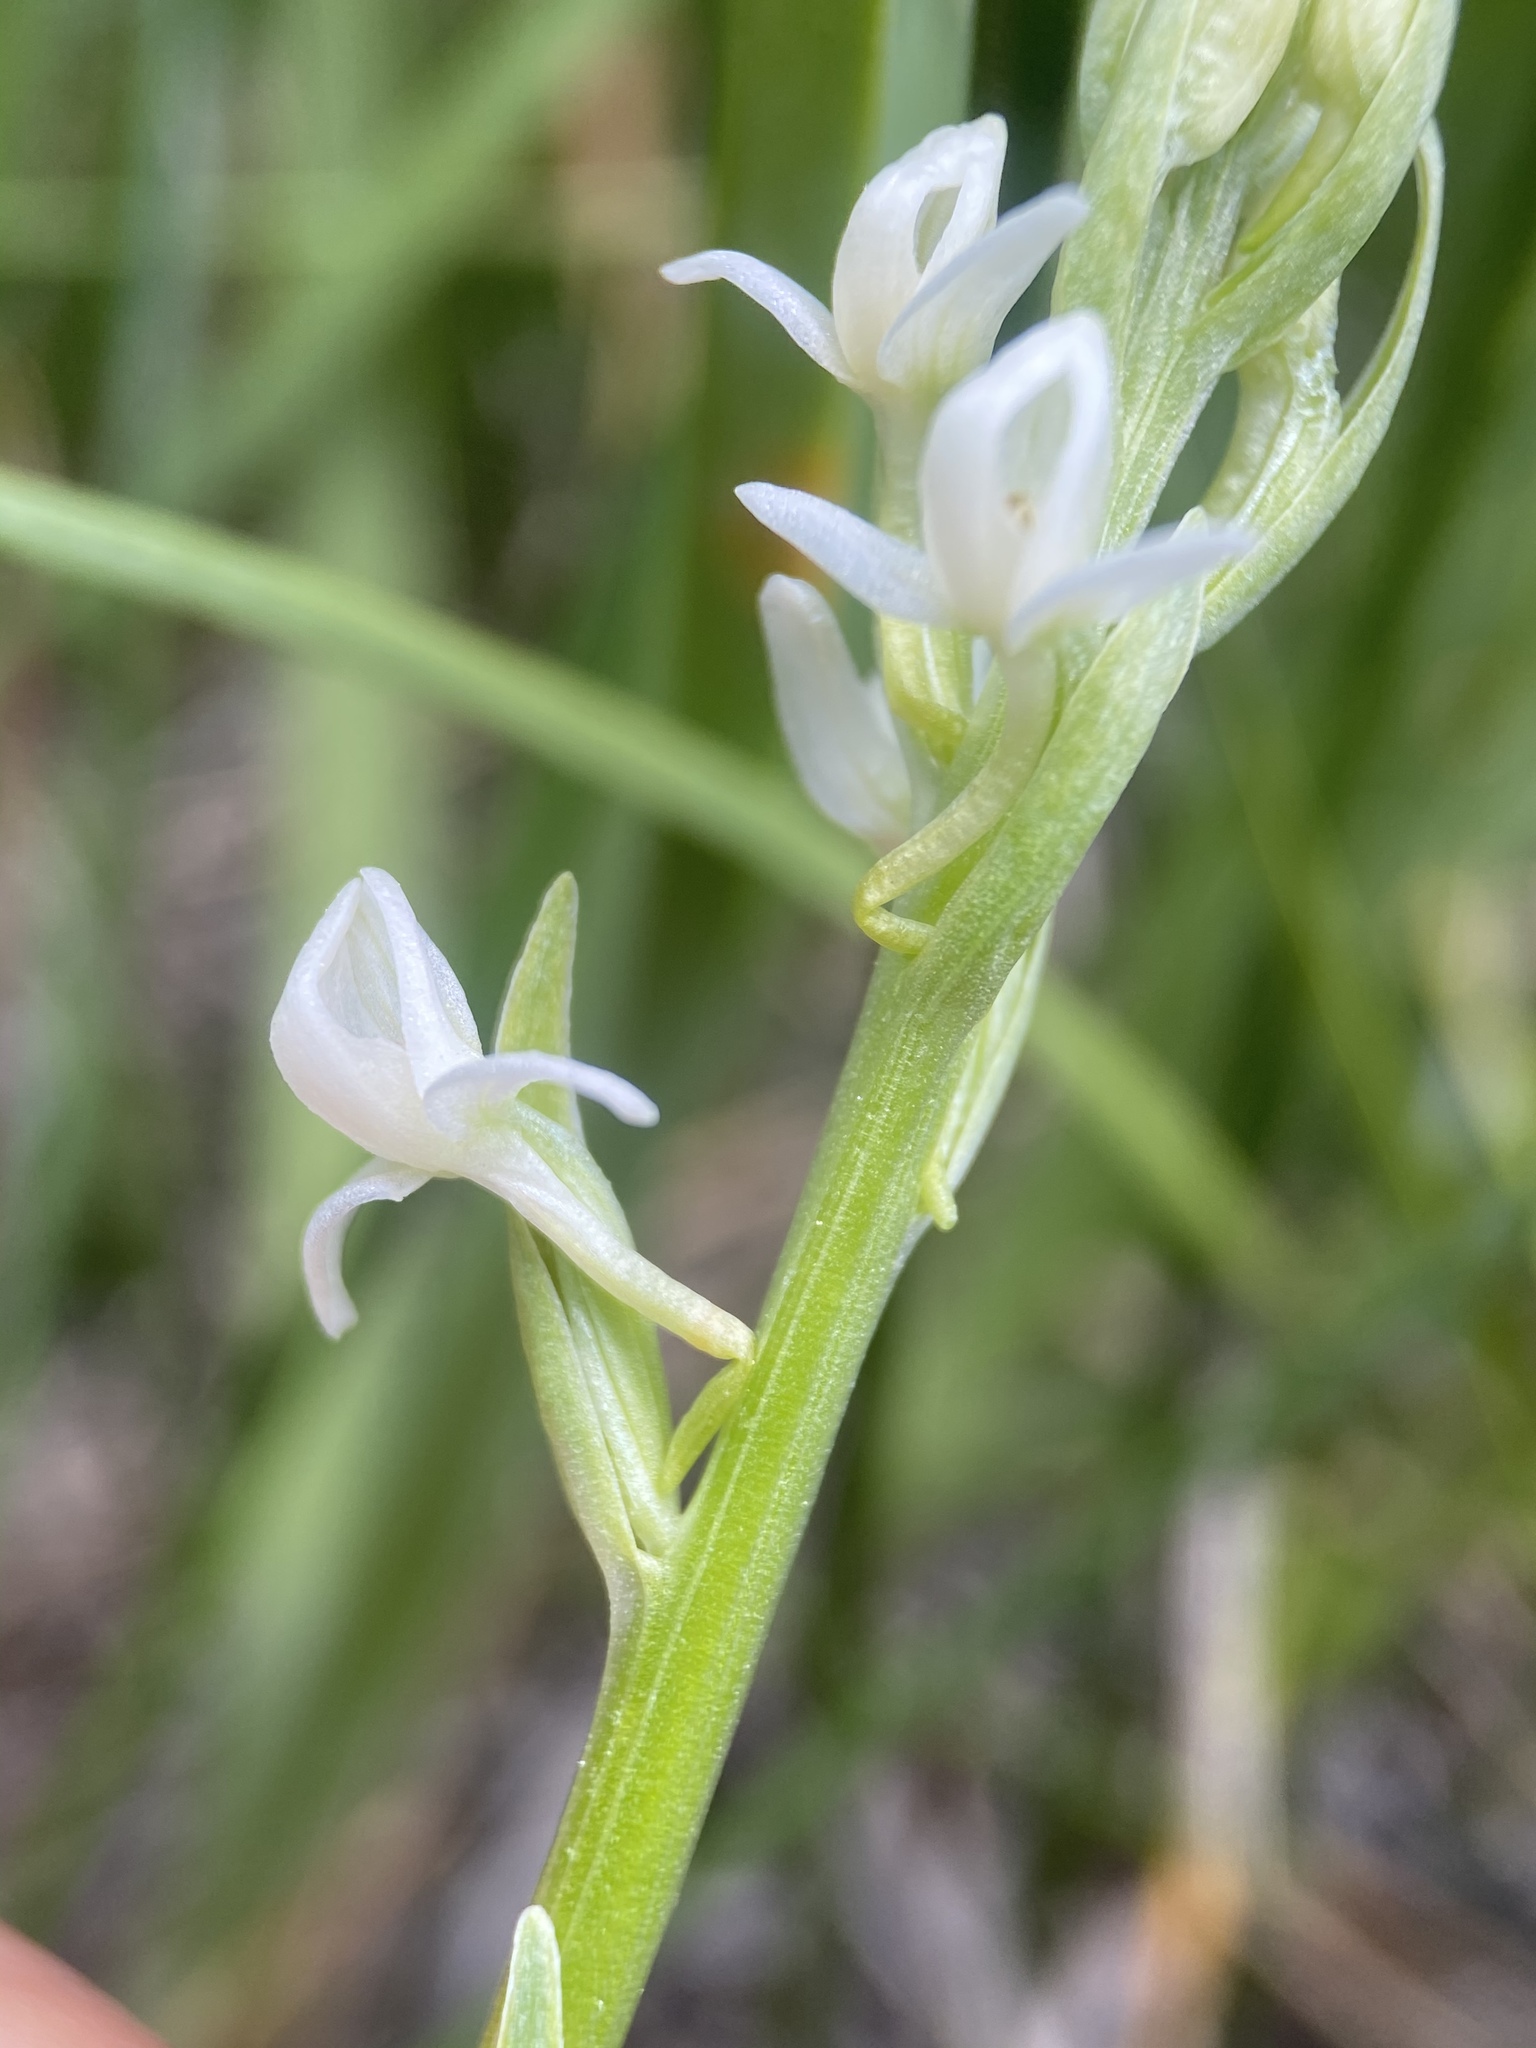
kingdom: Plantae
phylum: Tracheophyta
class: Liliopsida
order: Asparagales
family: Orchidaceae
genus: Platanthera
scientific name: Platanthera dilatata
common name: Bog candles
